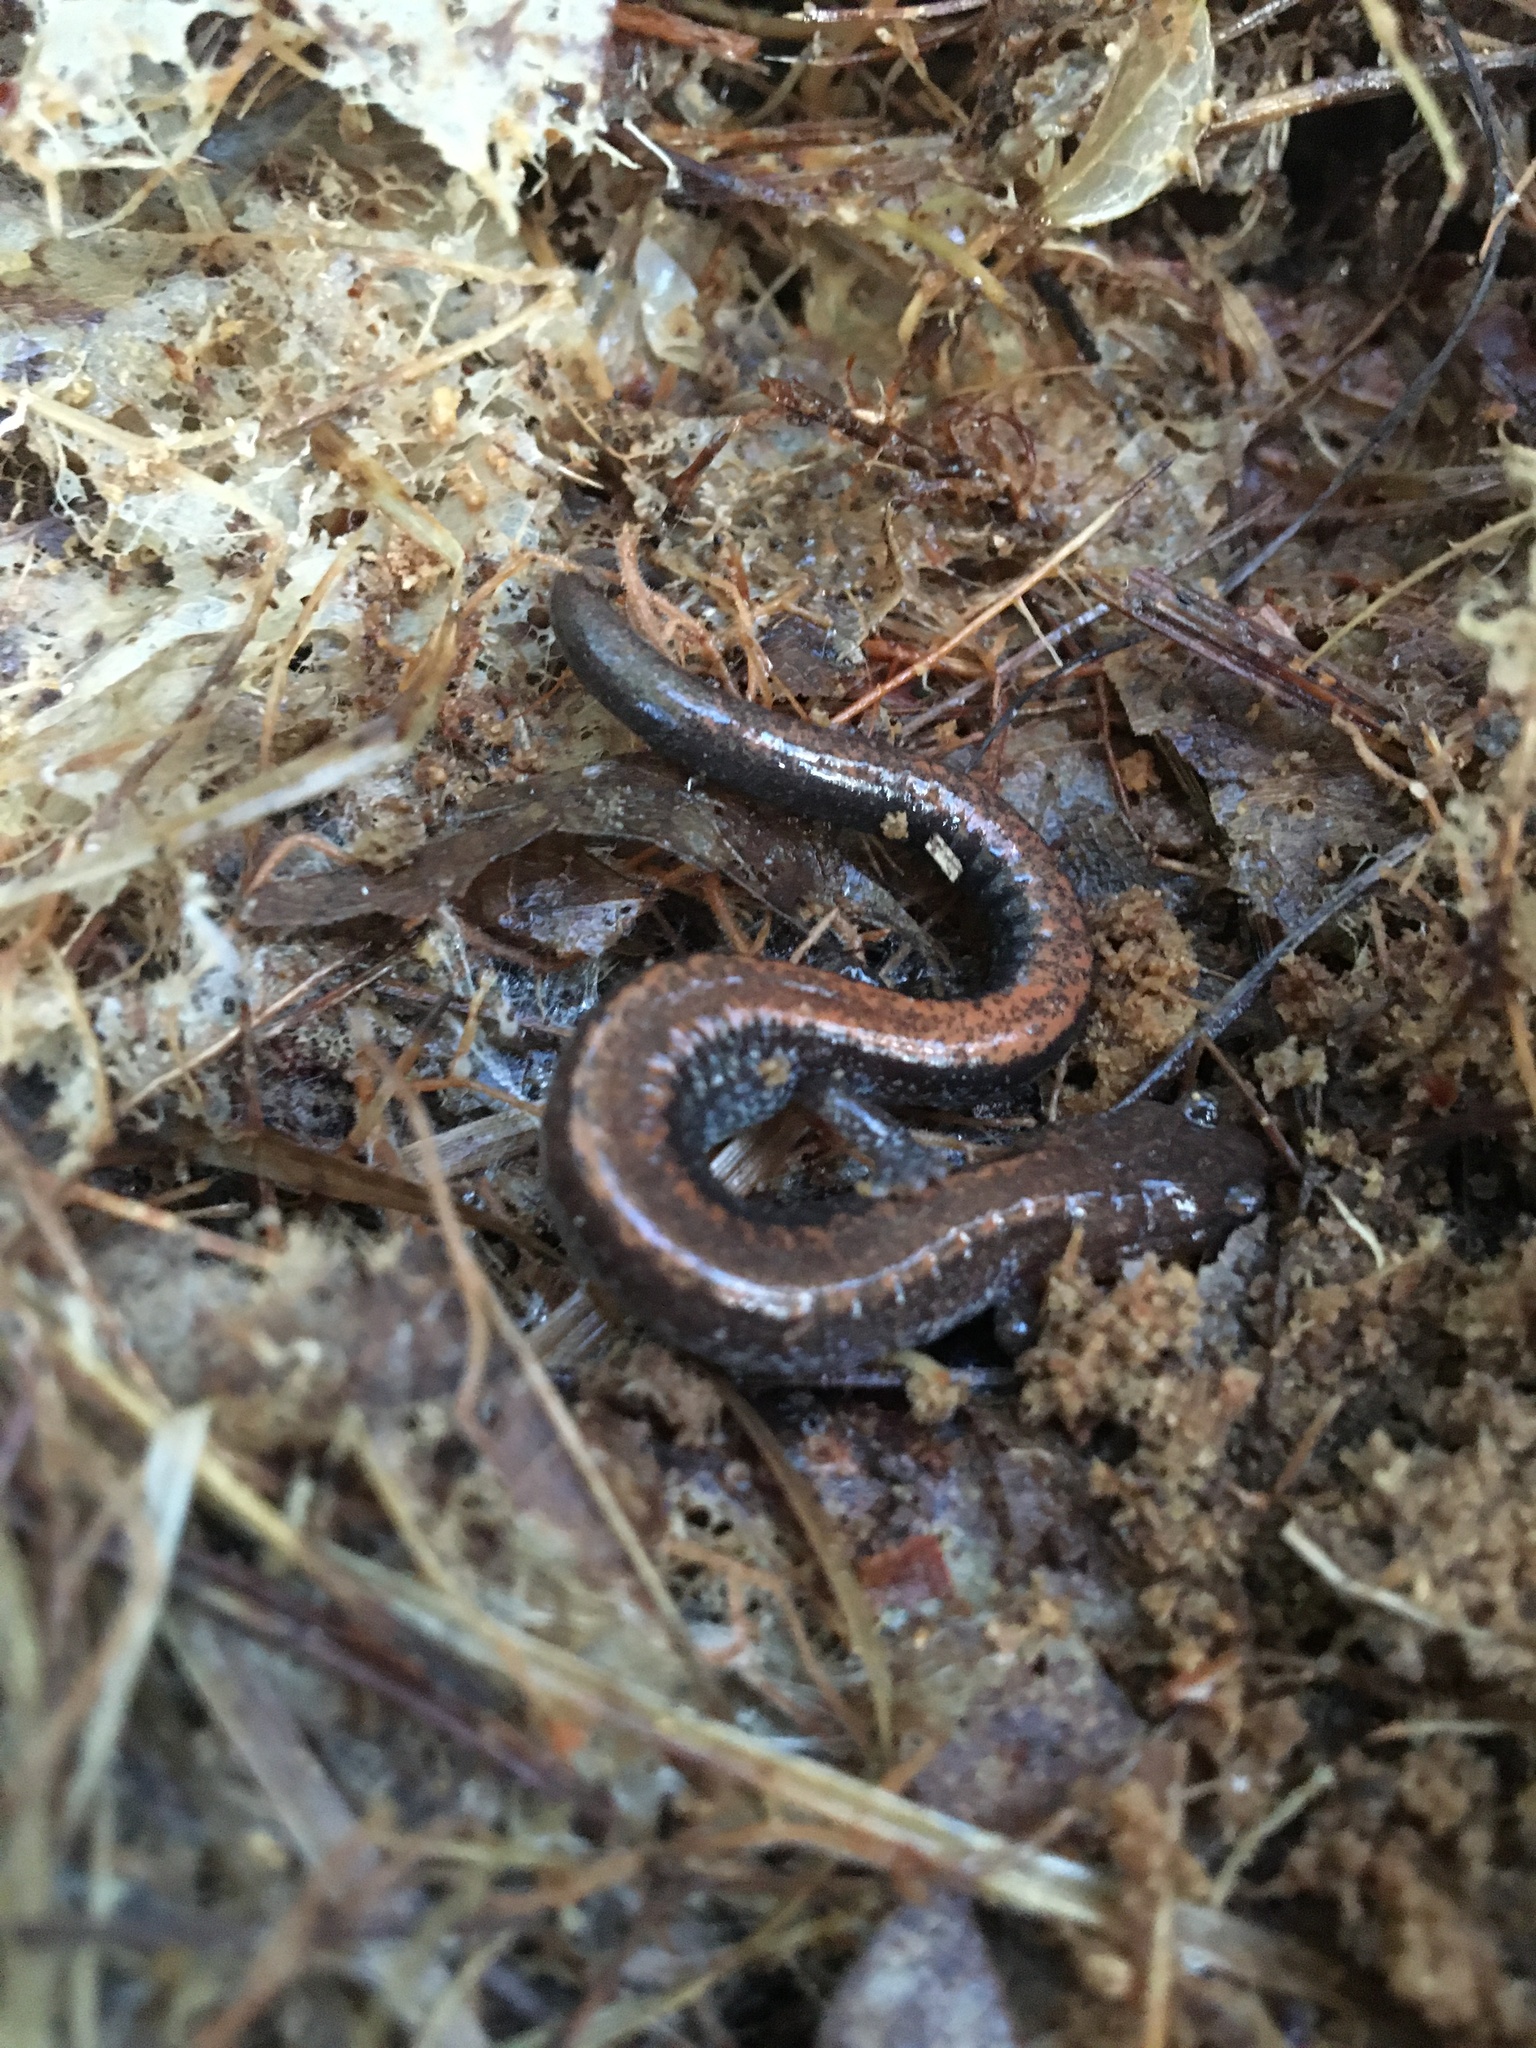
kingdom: Animalia
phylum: Chordata
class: Amphibia
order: Caudata
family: Plethodontidae
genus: Plethodon
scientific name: Plethodon cinereus
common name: Redback salamander
